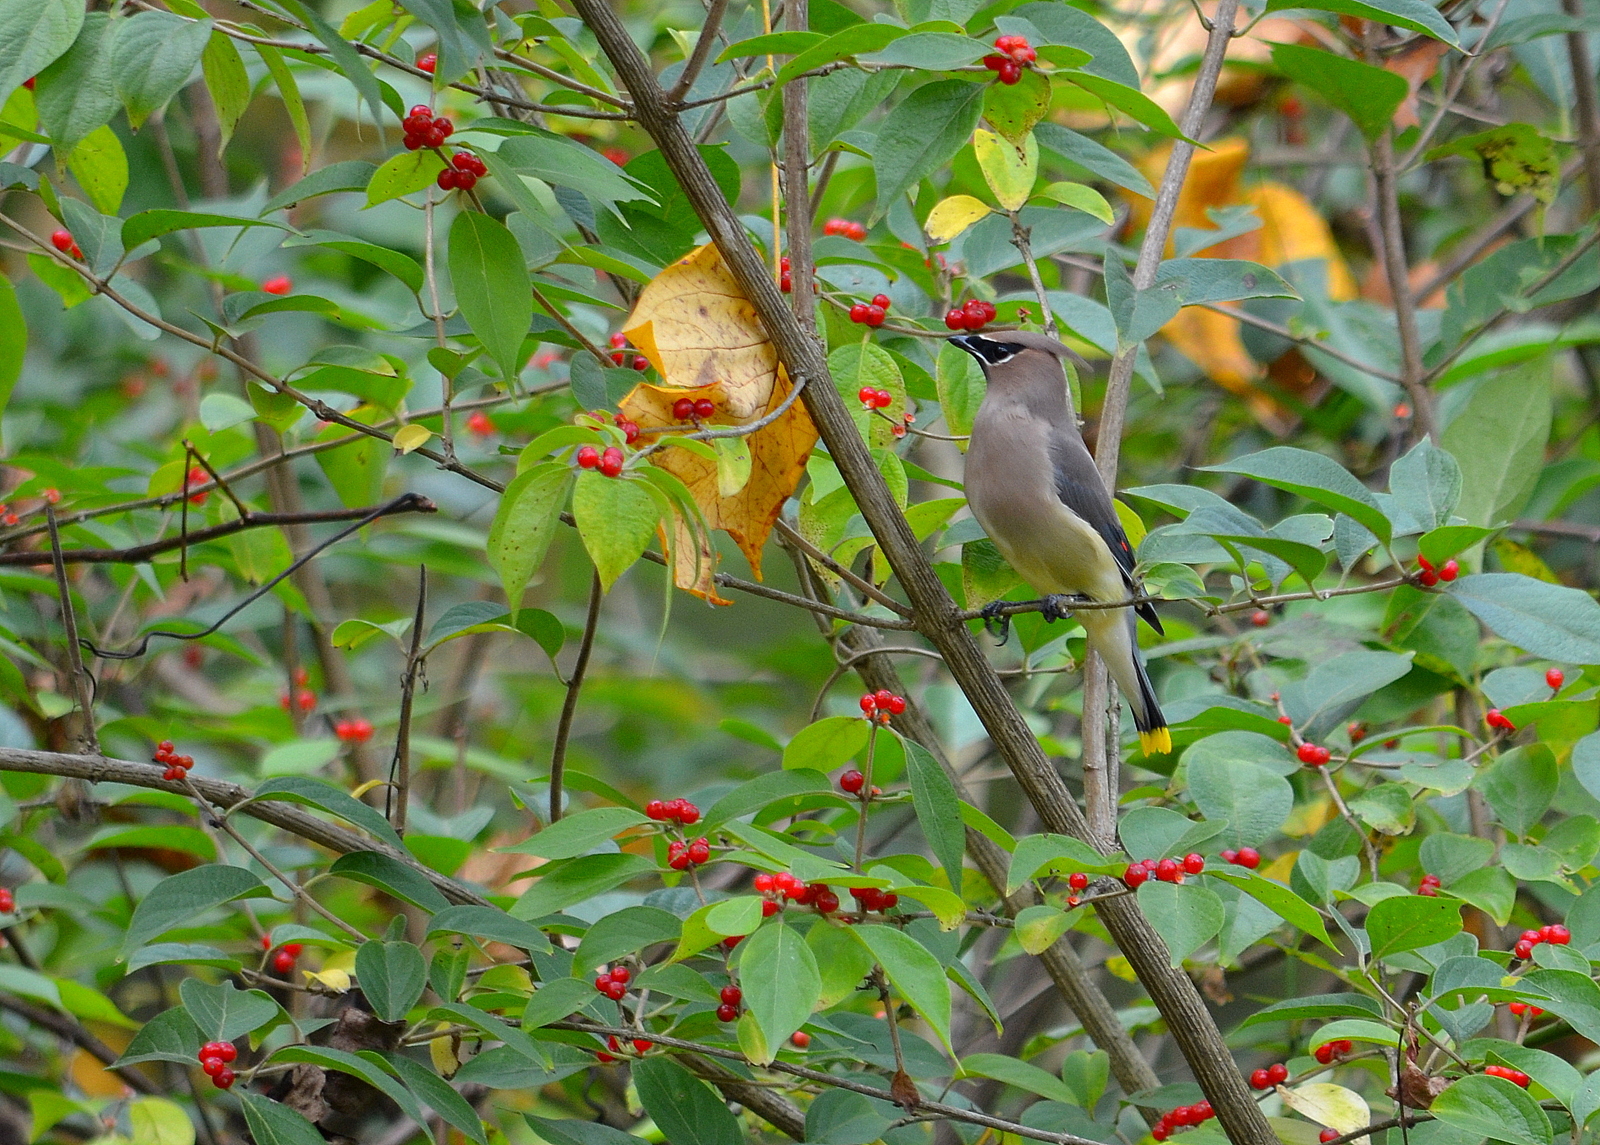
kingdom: Animalia
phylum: Chordata
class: Aves
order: Passeriformes
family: Bombycillidae
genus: Bombycilla
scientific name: Bombycilla cedrorum
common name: Cedar waxwing
